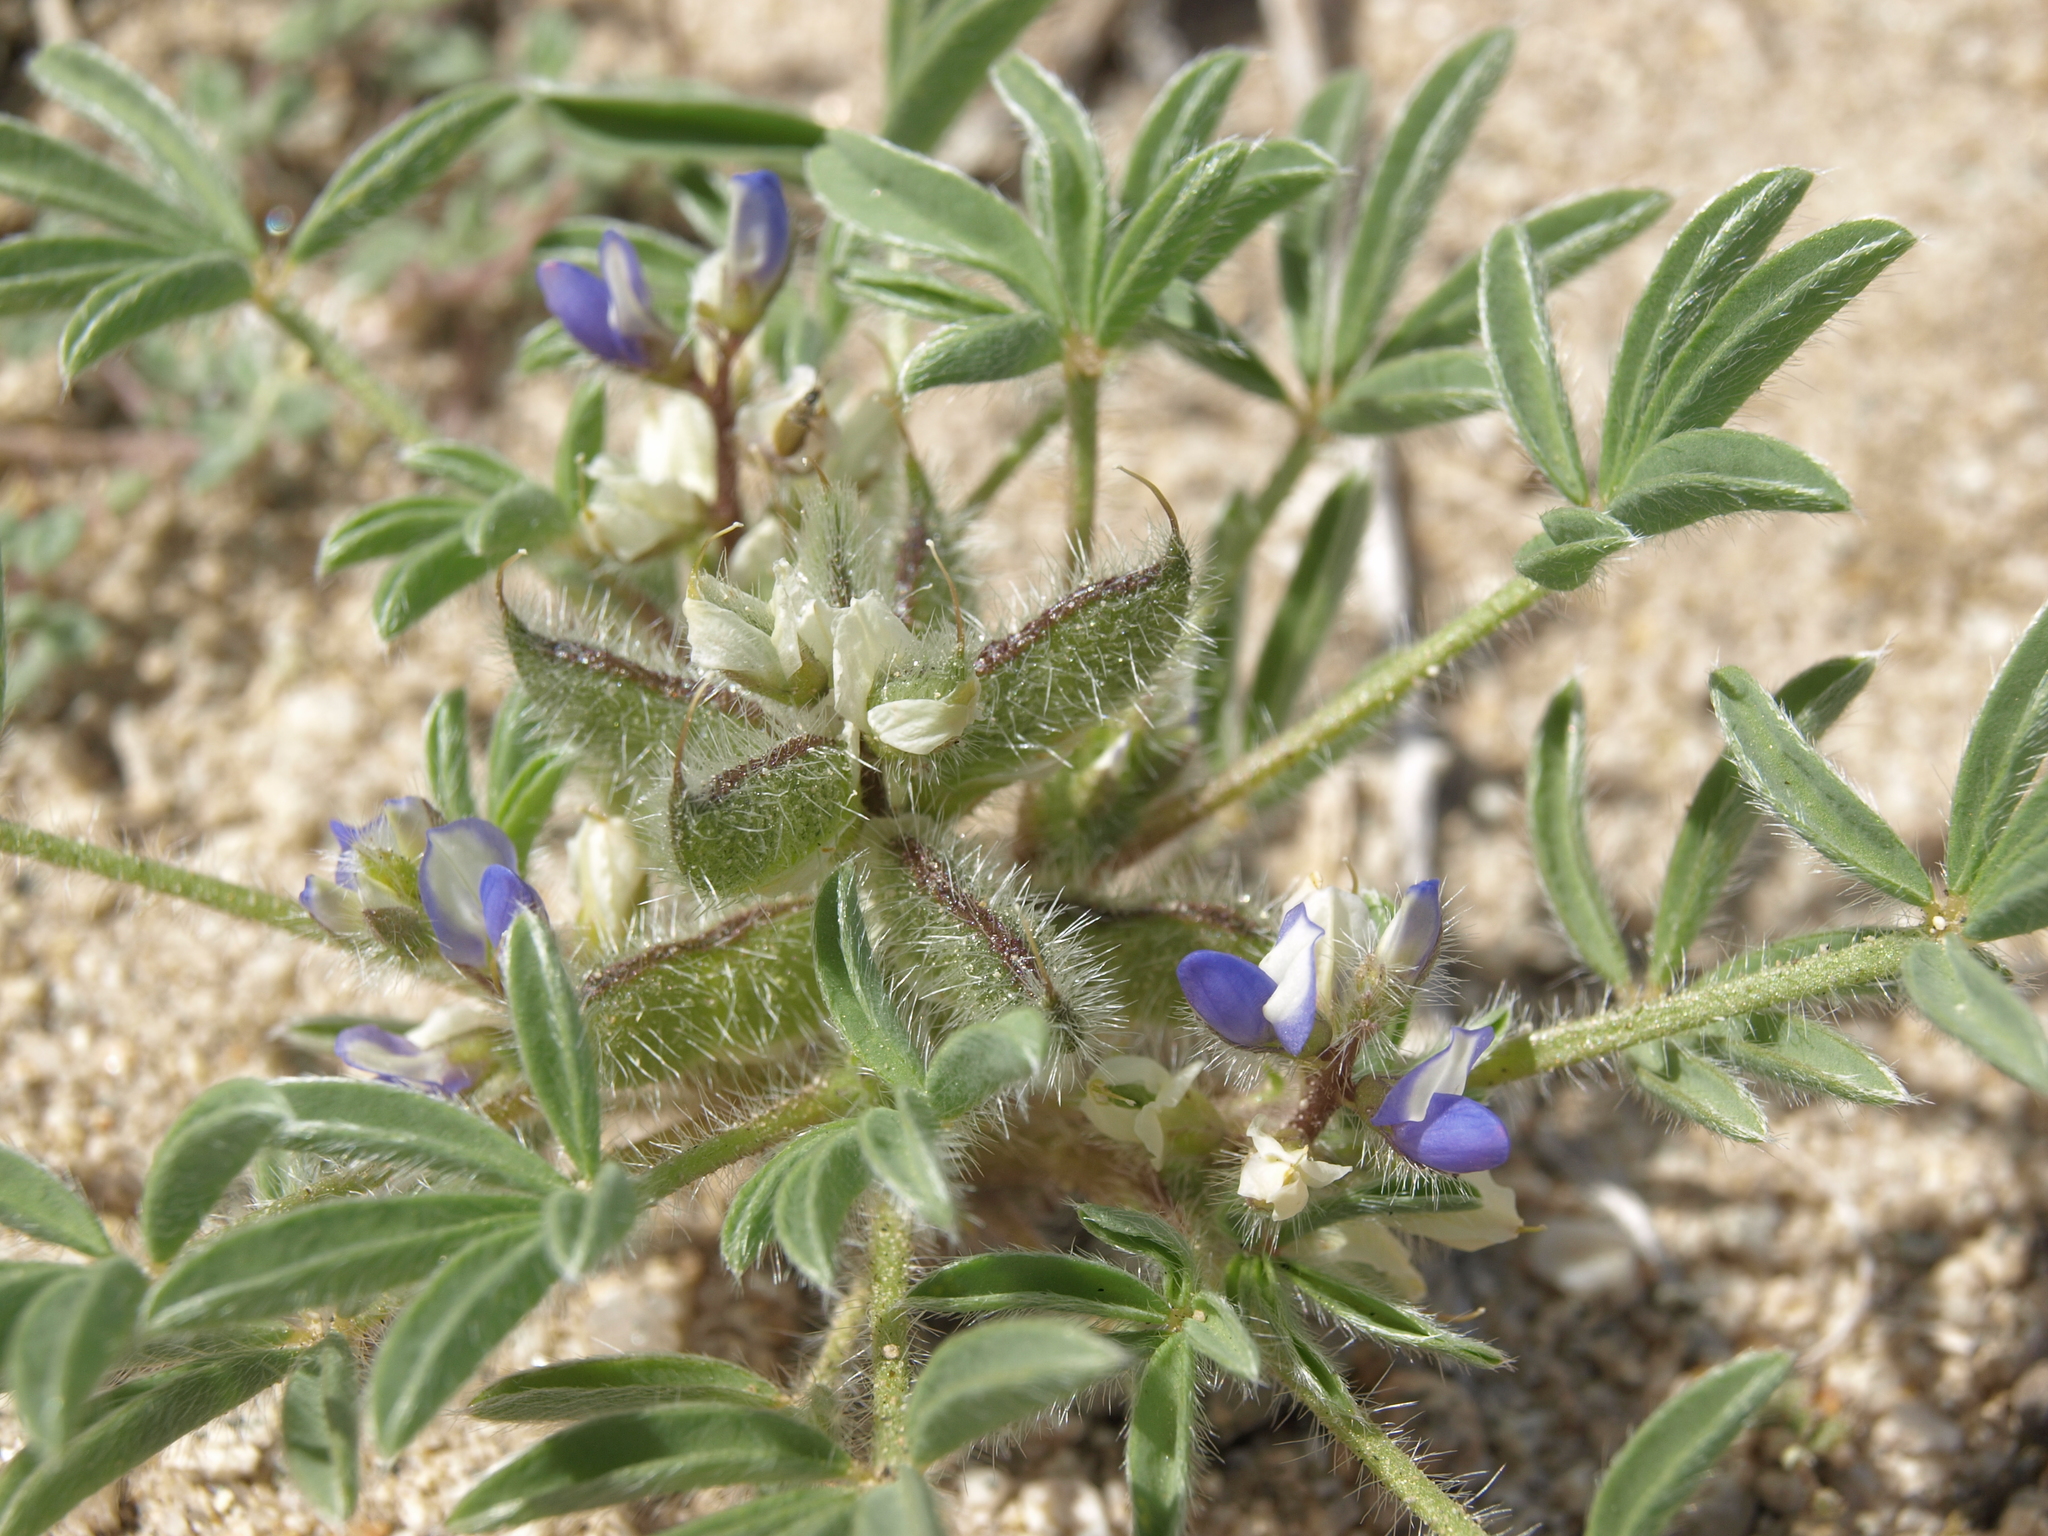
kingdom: Plantae
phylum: Tracheophyta
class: Magnoliopsida
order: Fabales
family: Fabaceae
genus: Lupinus
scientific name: Lupinus pusillus
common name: Low lupine
